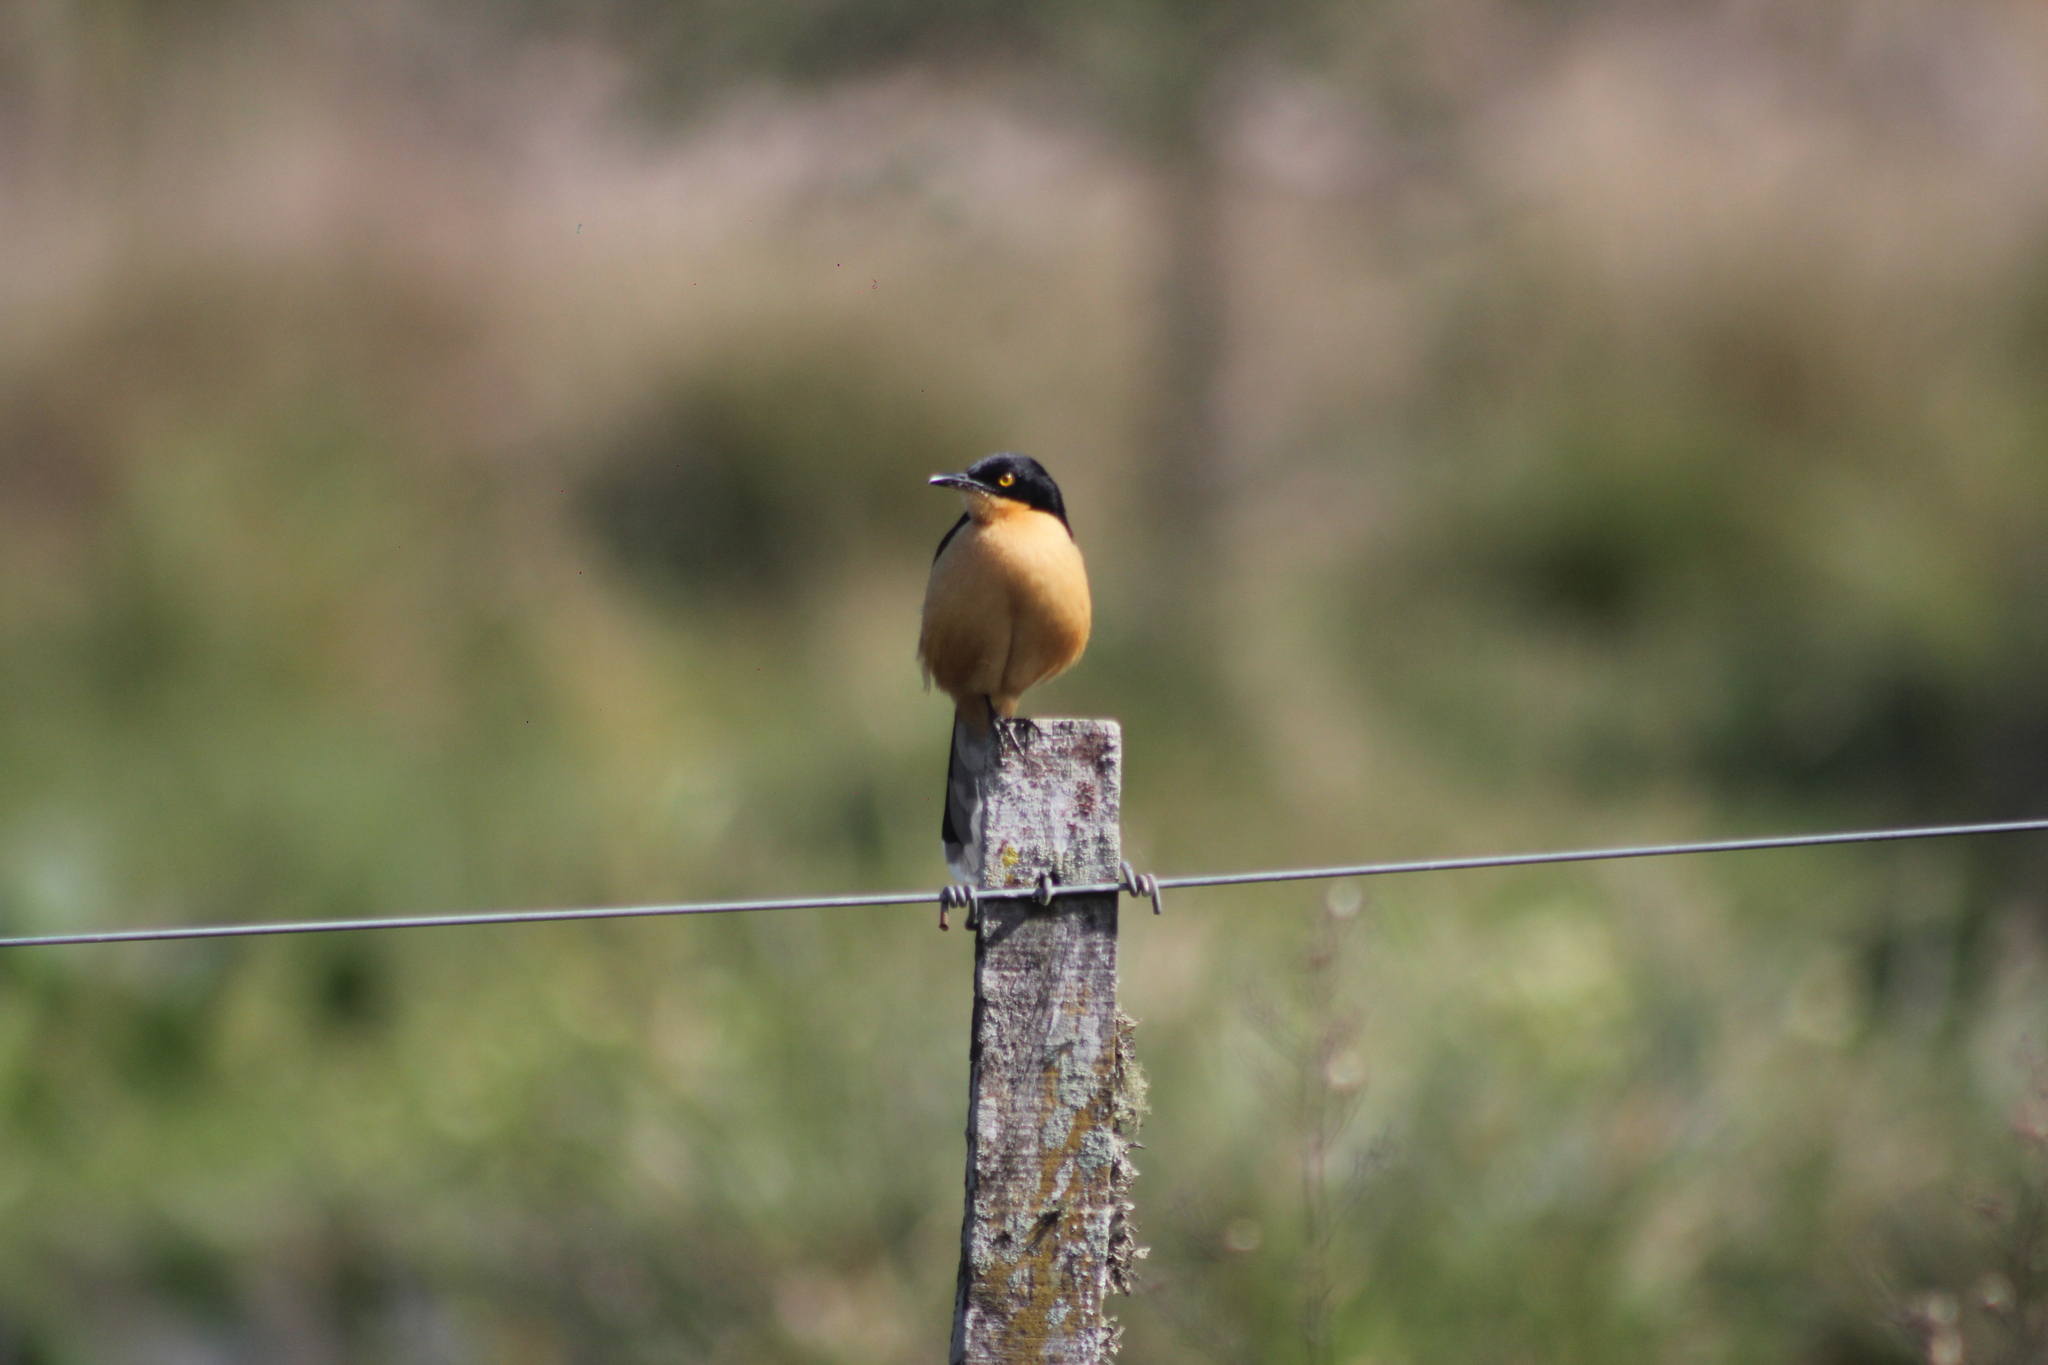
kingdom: Animalia
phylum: Chordata
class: Aves
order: Passeriformes
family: Donacobiidae
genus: Donacobius
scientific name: Donacobius atricapilla
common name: Black-capped donacobius
